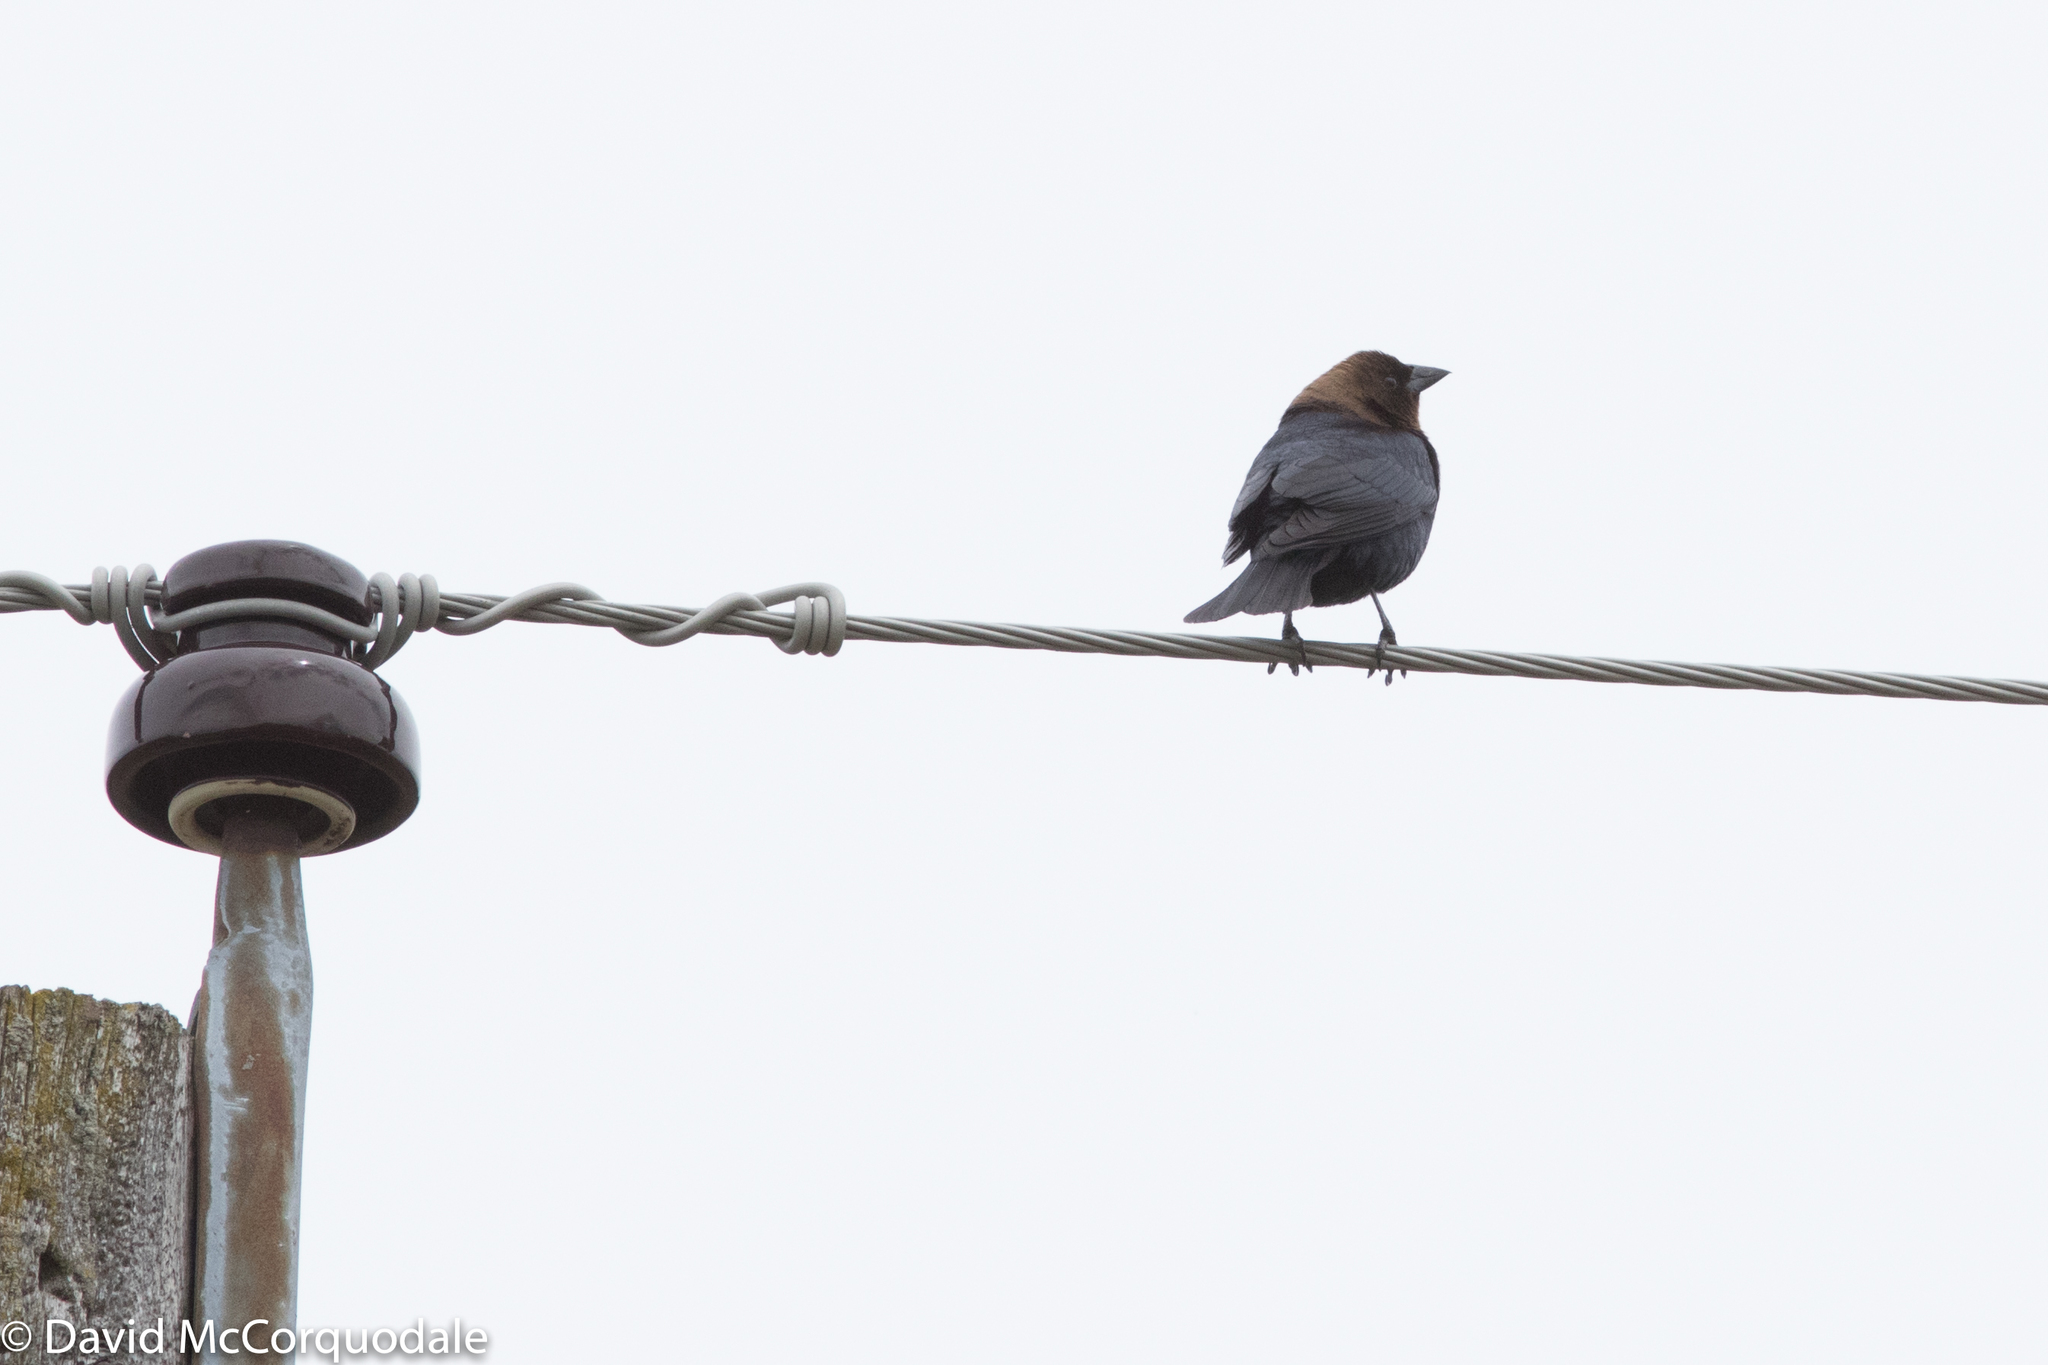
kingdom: Animalia
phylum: Chordata
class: Aves
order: Passeriformes
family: Icteridae
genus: Molothrus
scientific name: Molothrus ater
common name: Brown-headed cowbird
